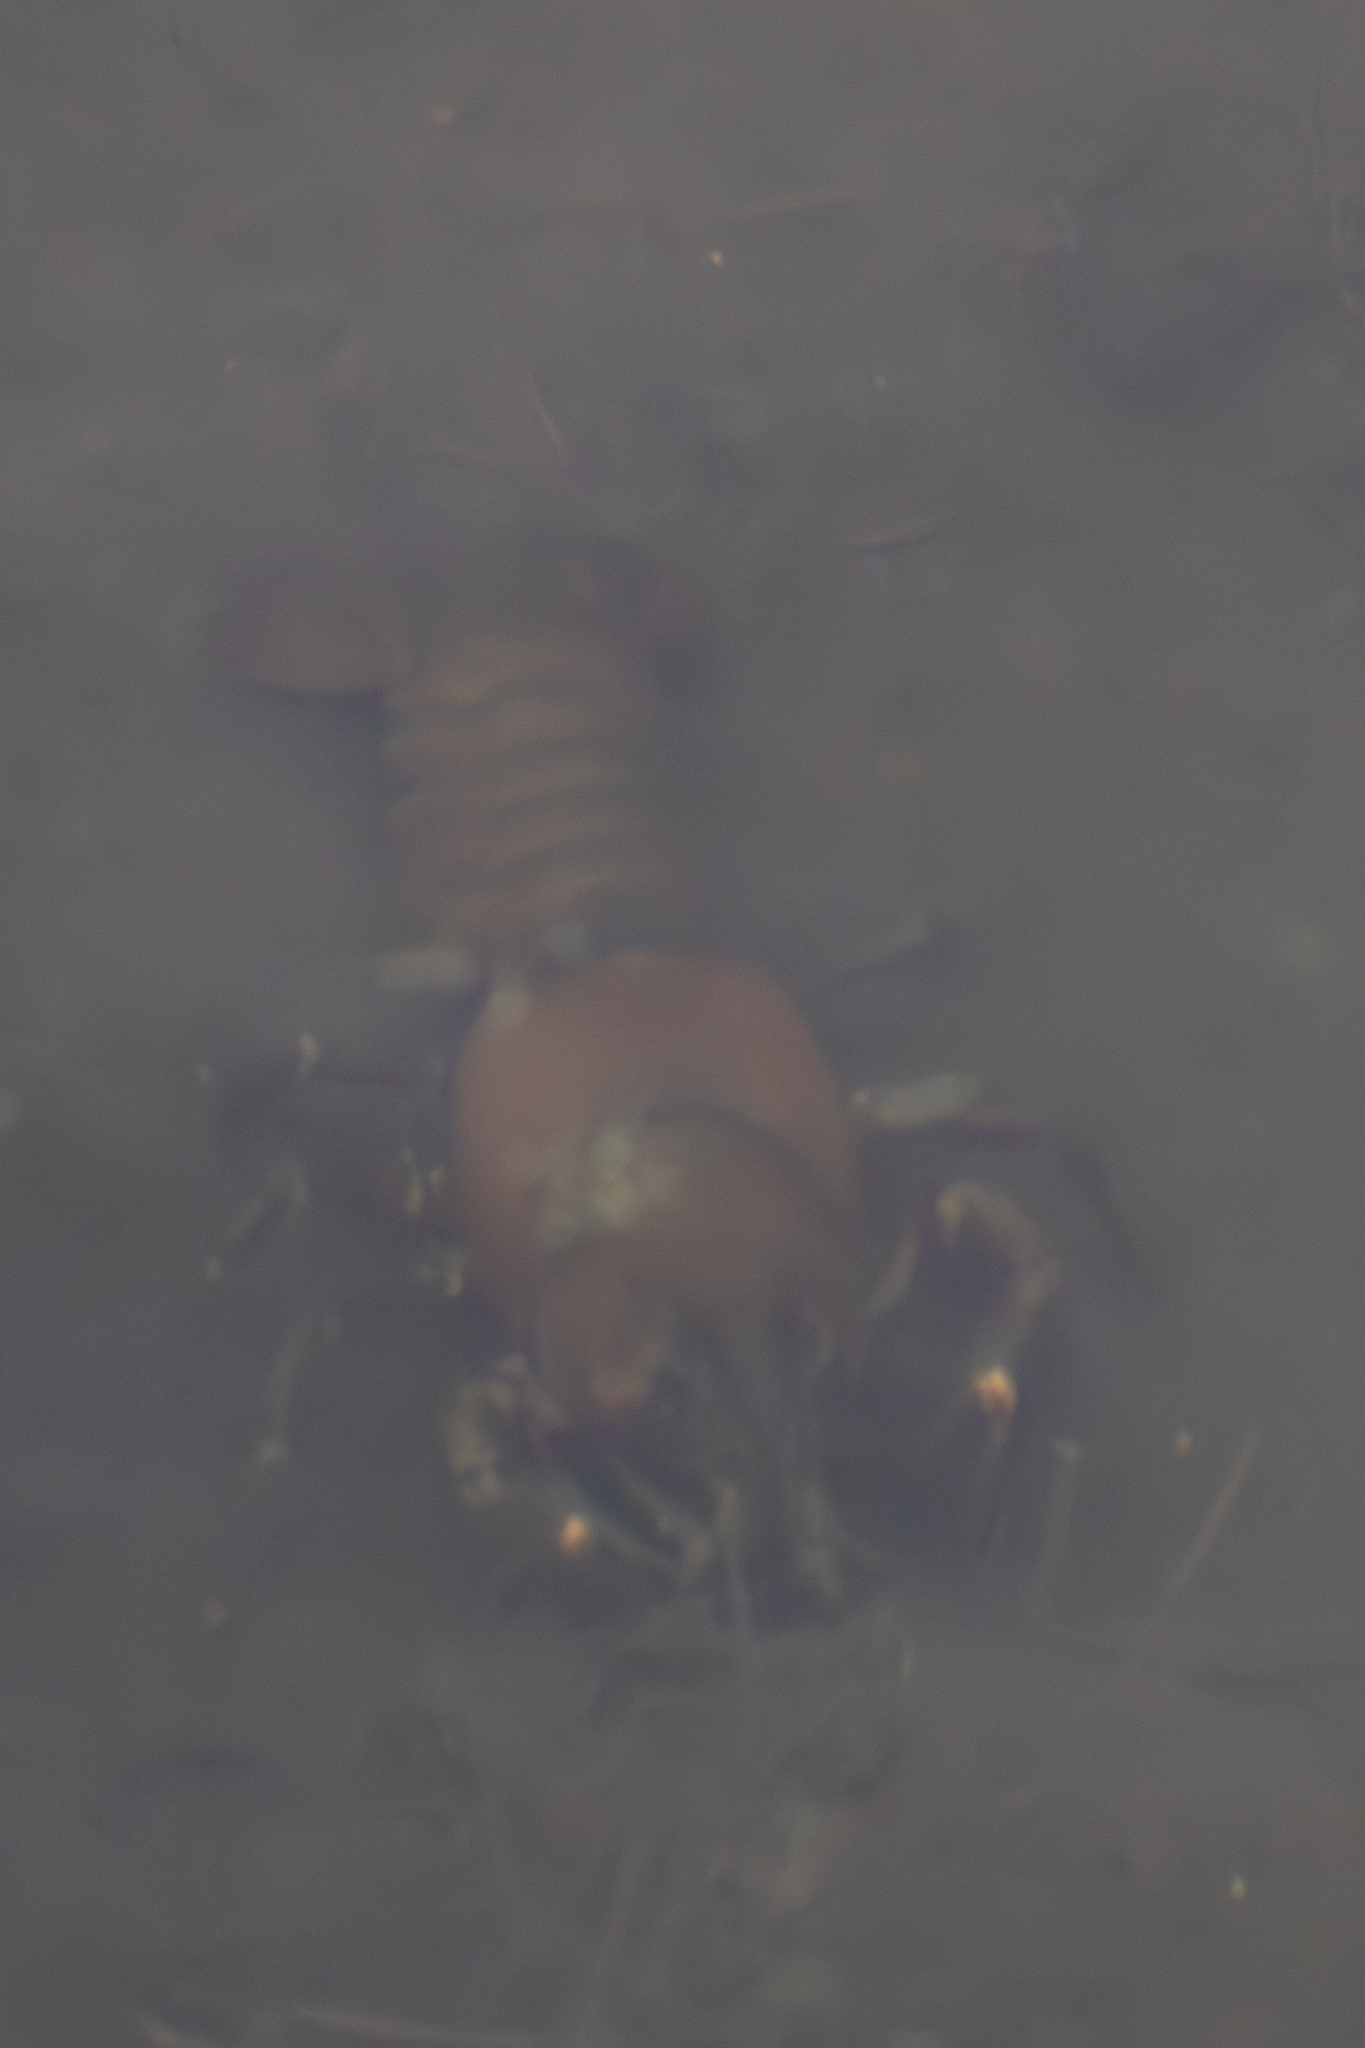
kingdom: Animalia
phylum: Arthropoda
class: Malacostraca
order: Decapoda
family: Astacidae
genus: Pacifastacus
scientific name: Pacifastacus leniusculus
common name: Signal crayfish
